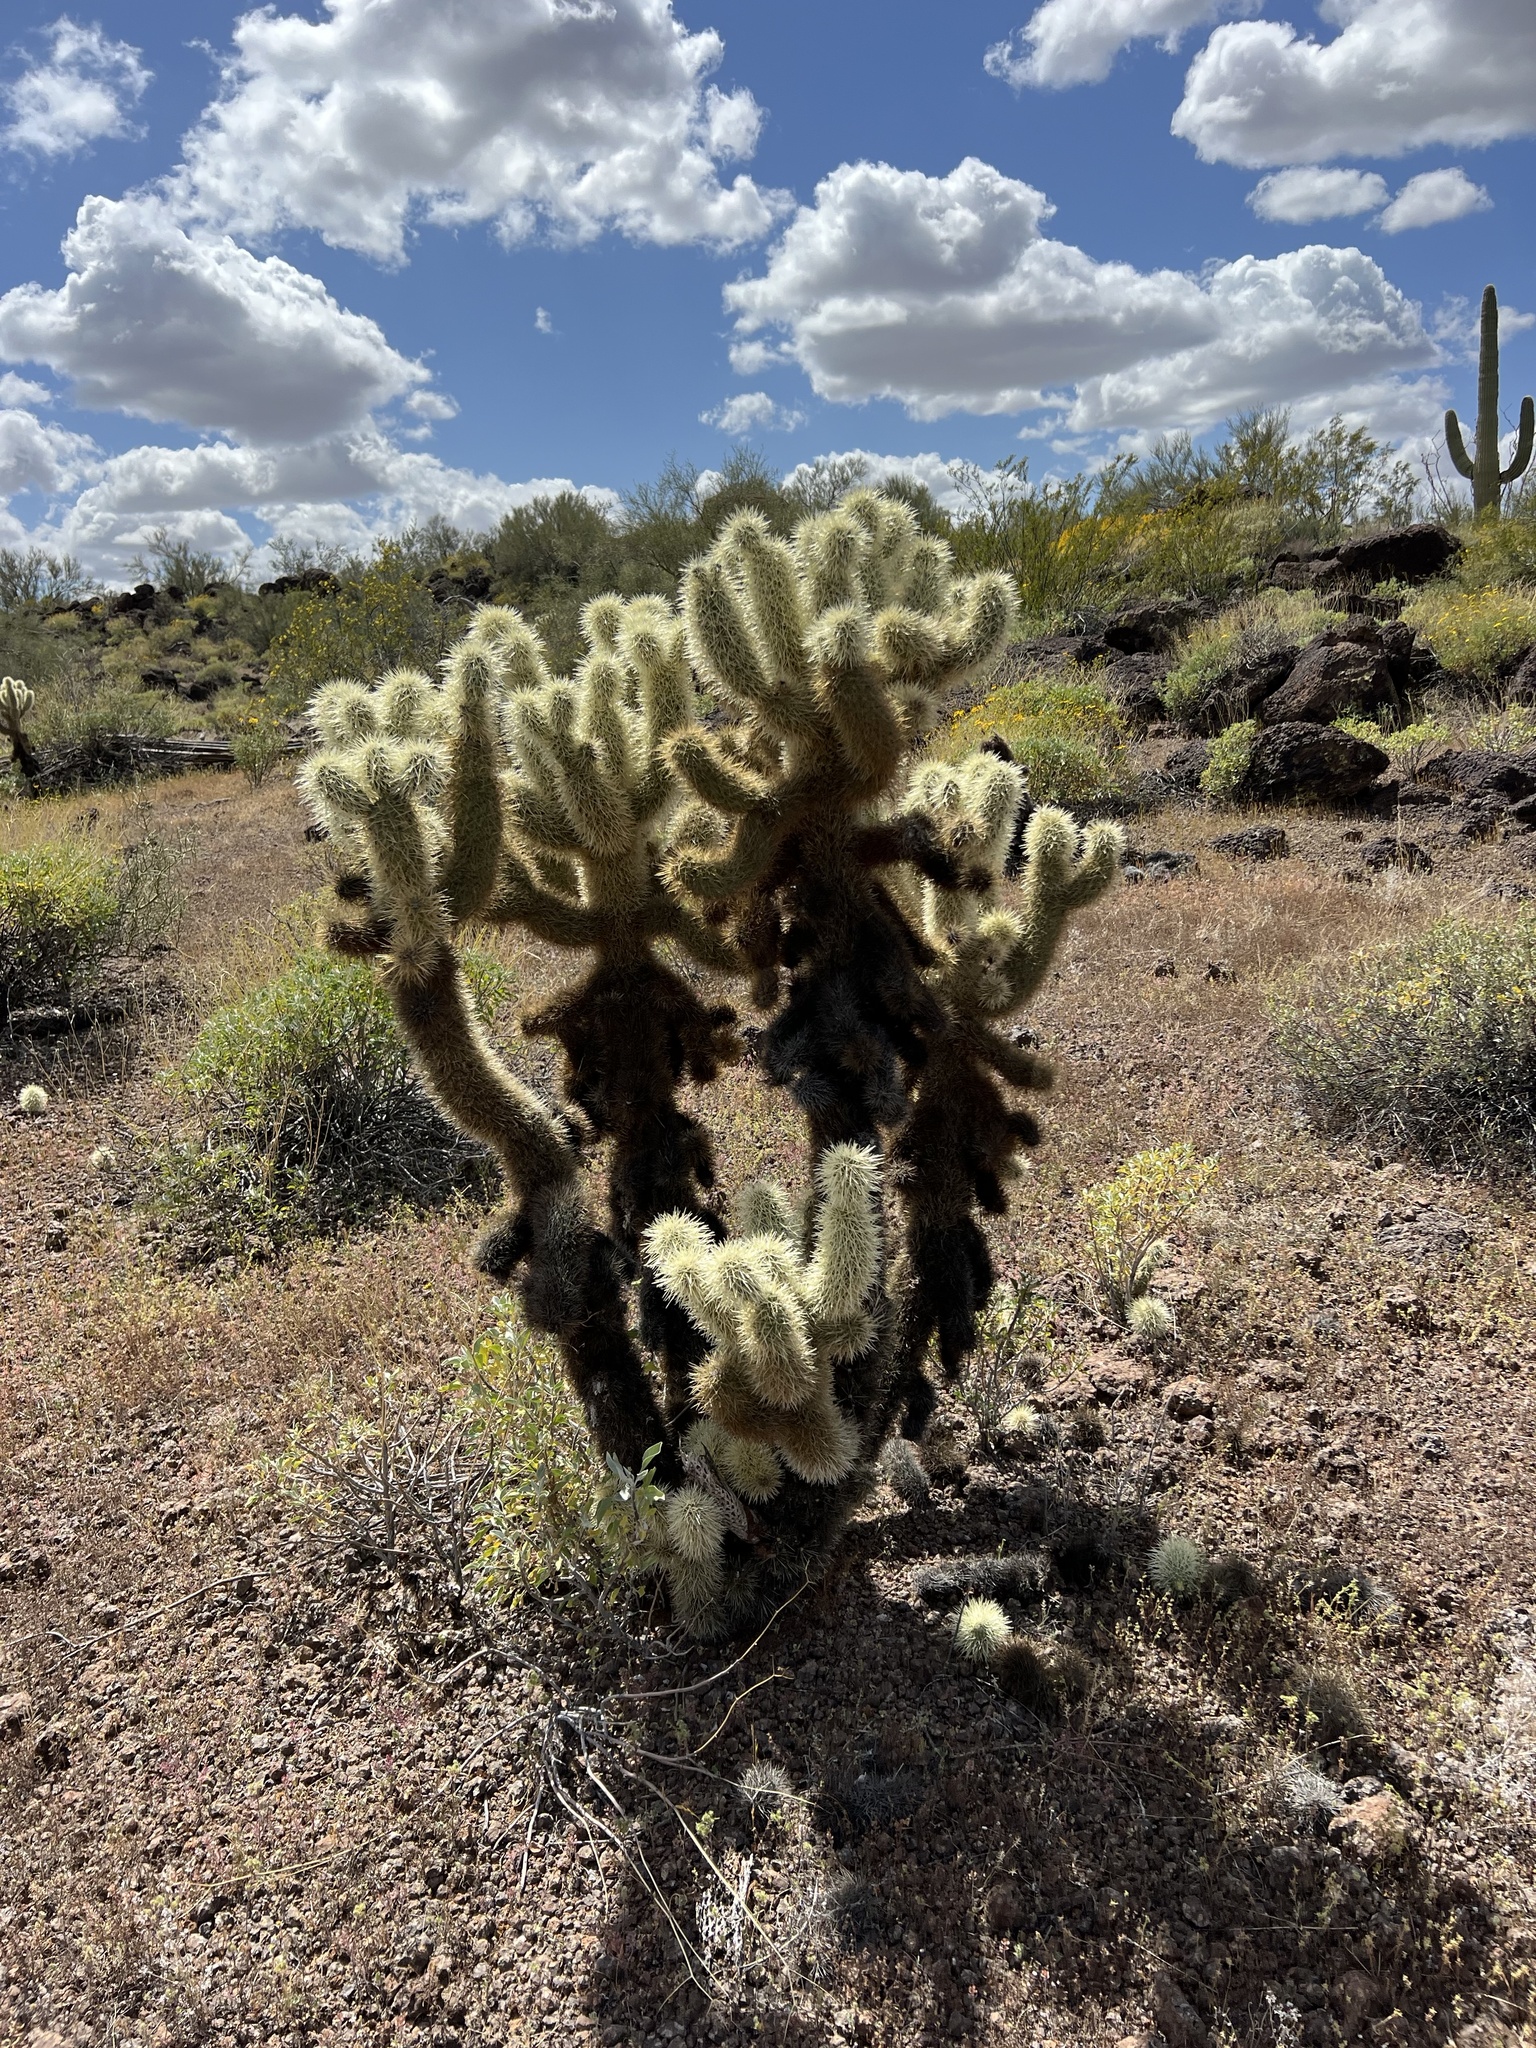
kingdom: Plantae
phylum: Tracheophyta
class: Magnoliopsida
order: Caryophyllales
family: Cactaceae
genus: Cylindropuntia
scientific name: Cylindropuntia fosbergii
